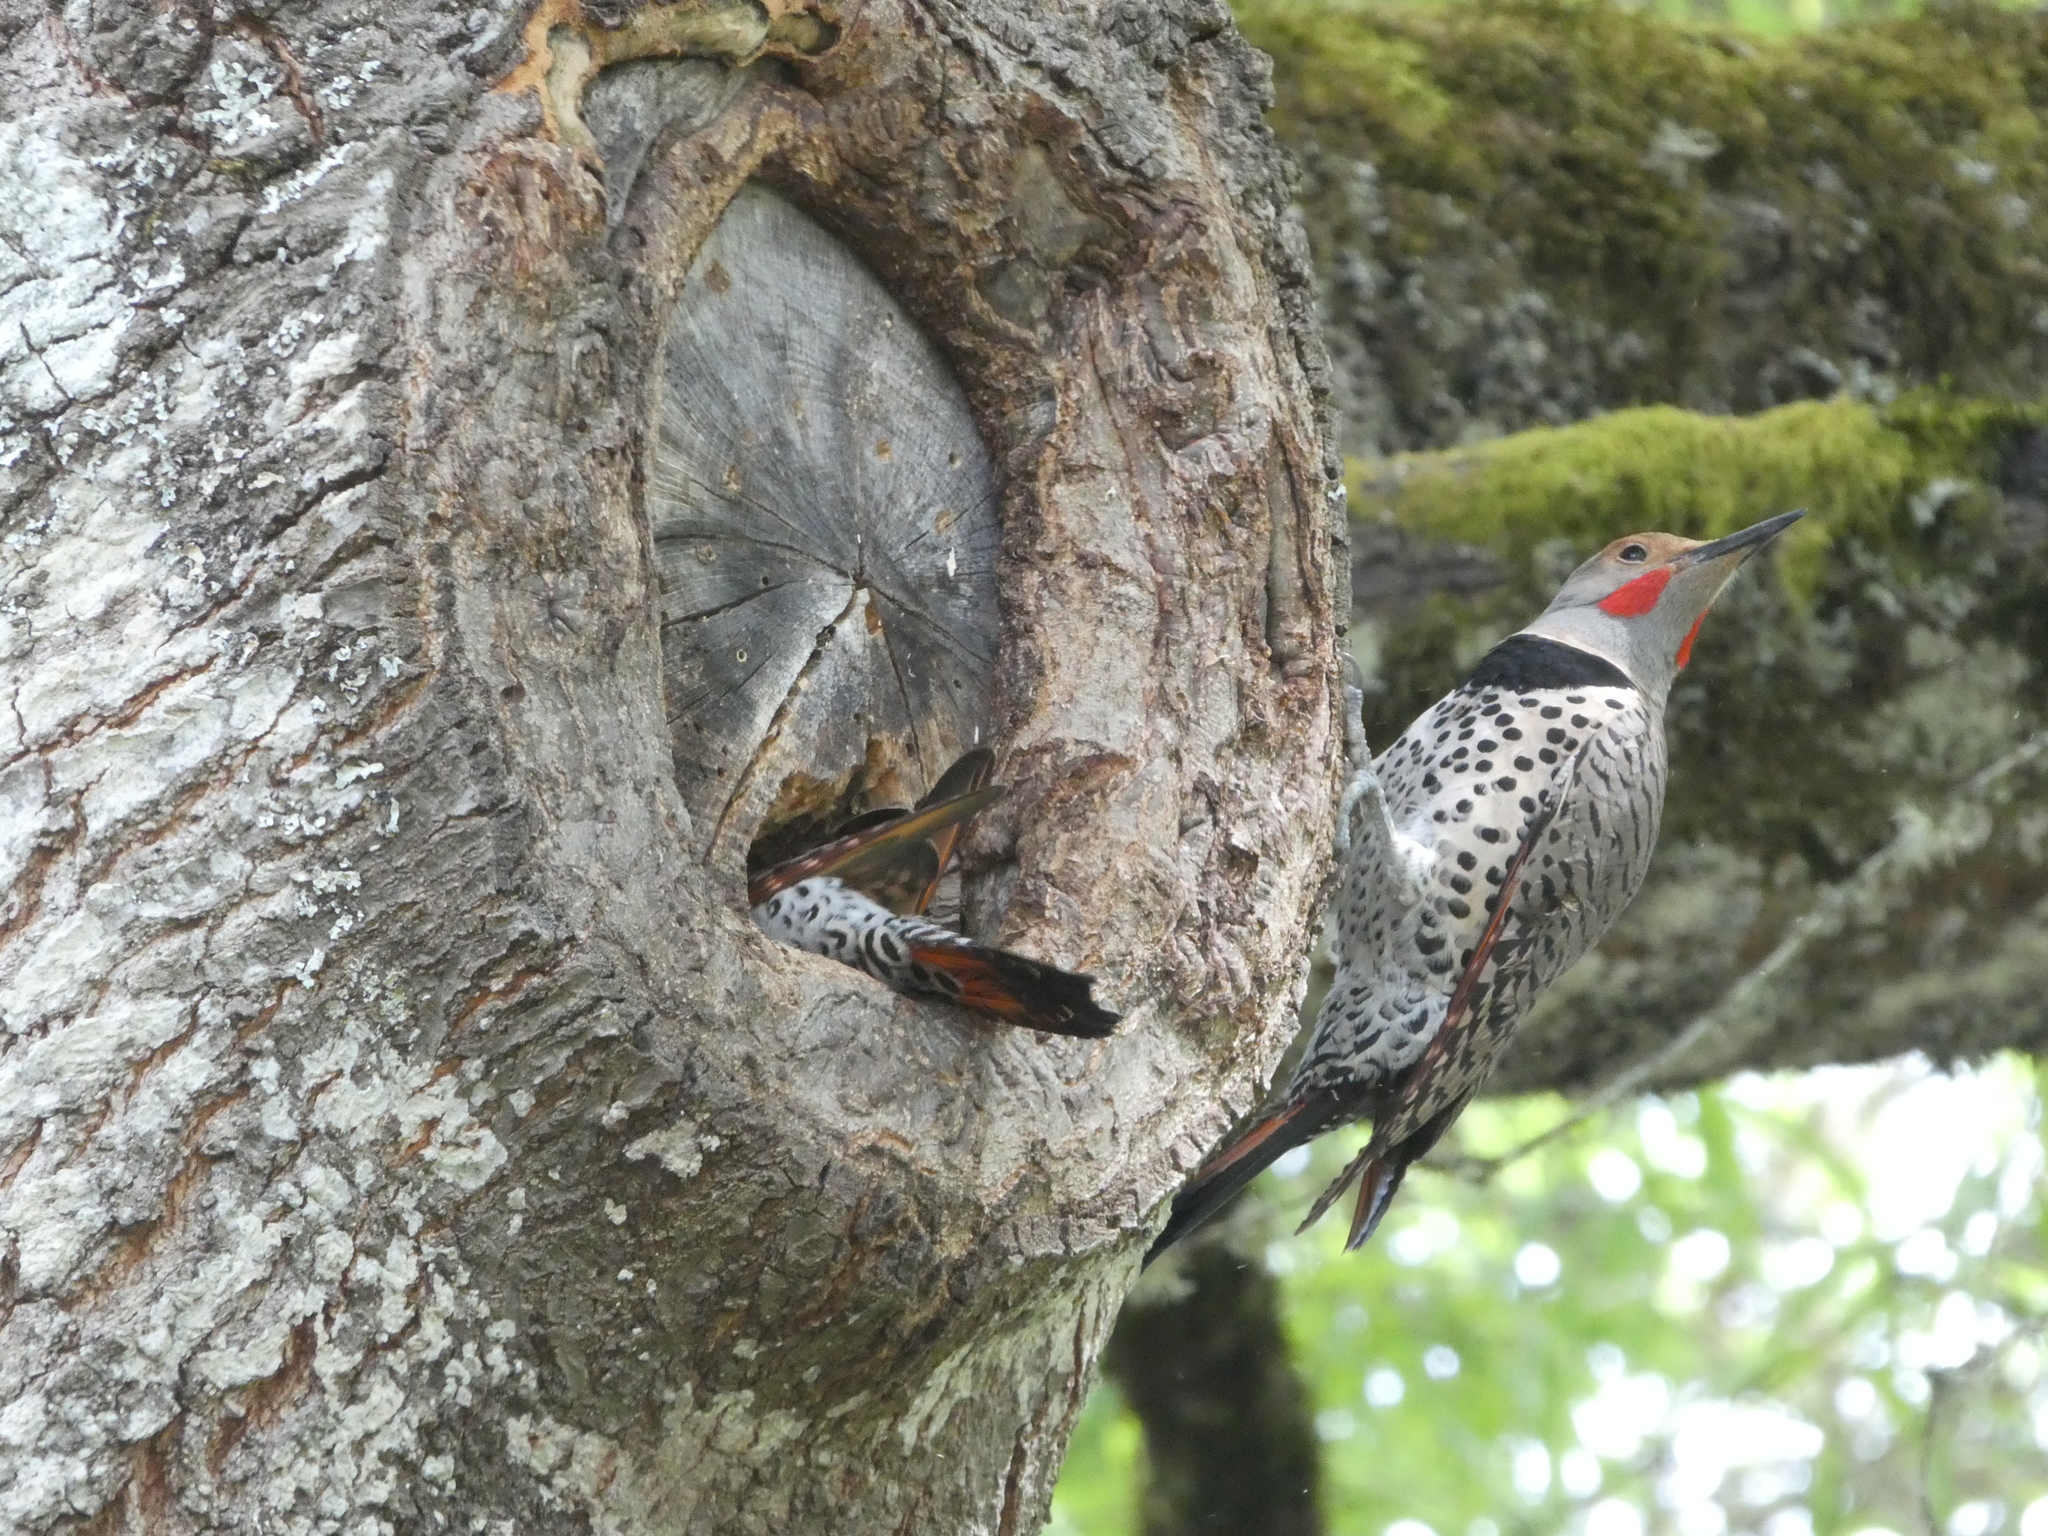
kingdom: Animalia
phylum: Chordata
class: Aves
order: Piciformes
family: Picidae
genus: Colaptes
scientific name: Colaptes auratus
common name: Northern flicker
